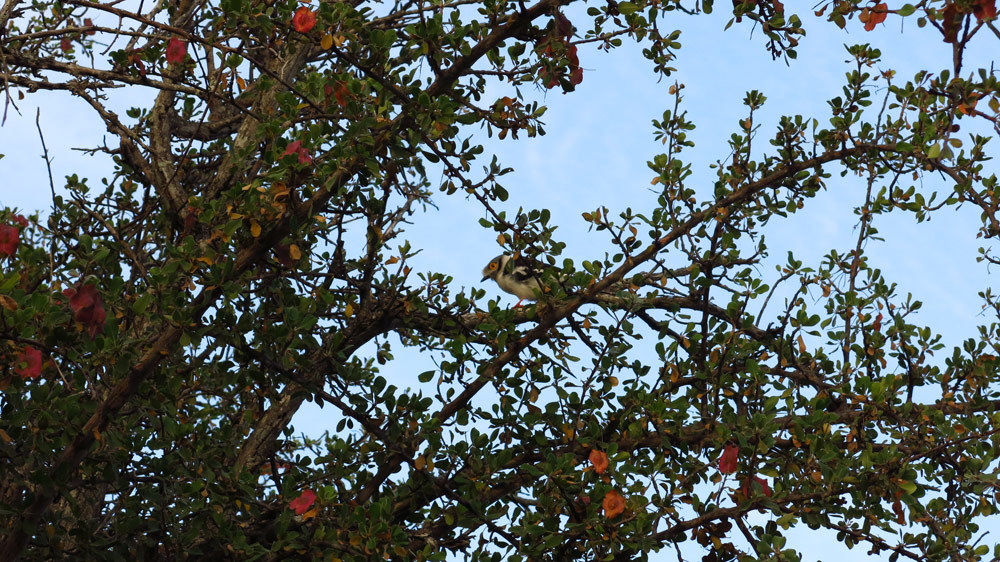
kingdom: Animalia
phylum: Chordata
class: Aves
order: Passeriformes
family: Prionopidae
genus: Prionops
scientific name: Prionops plumatus
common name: White-crested helmetshrike
